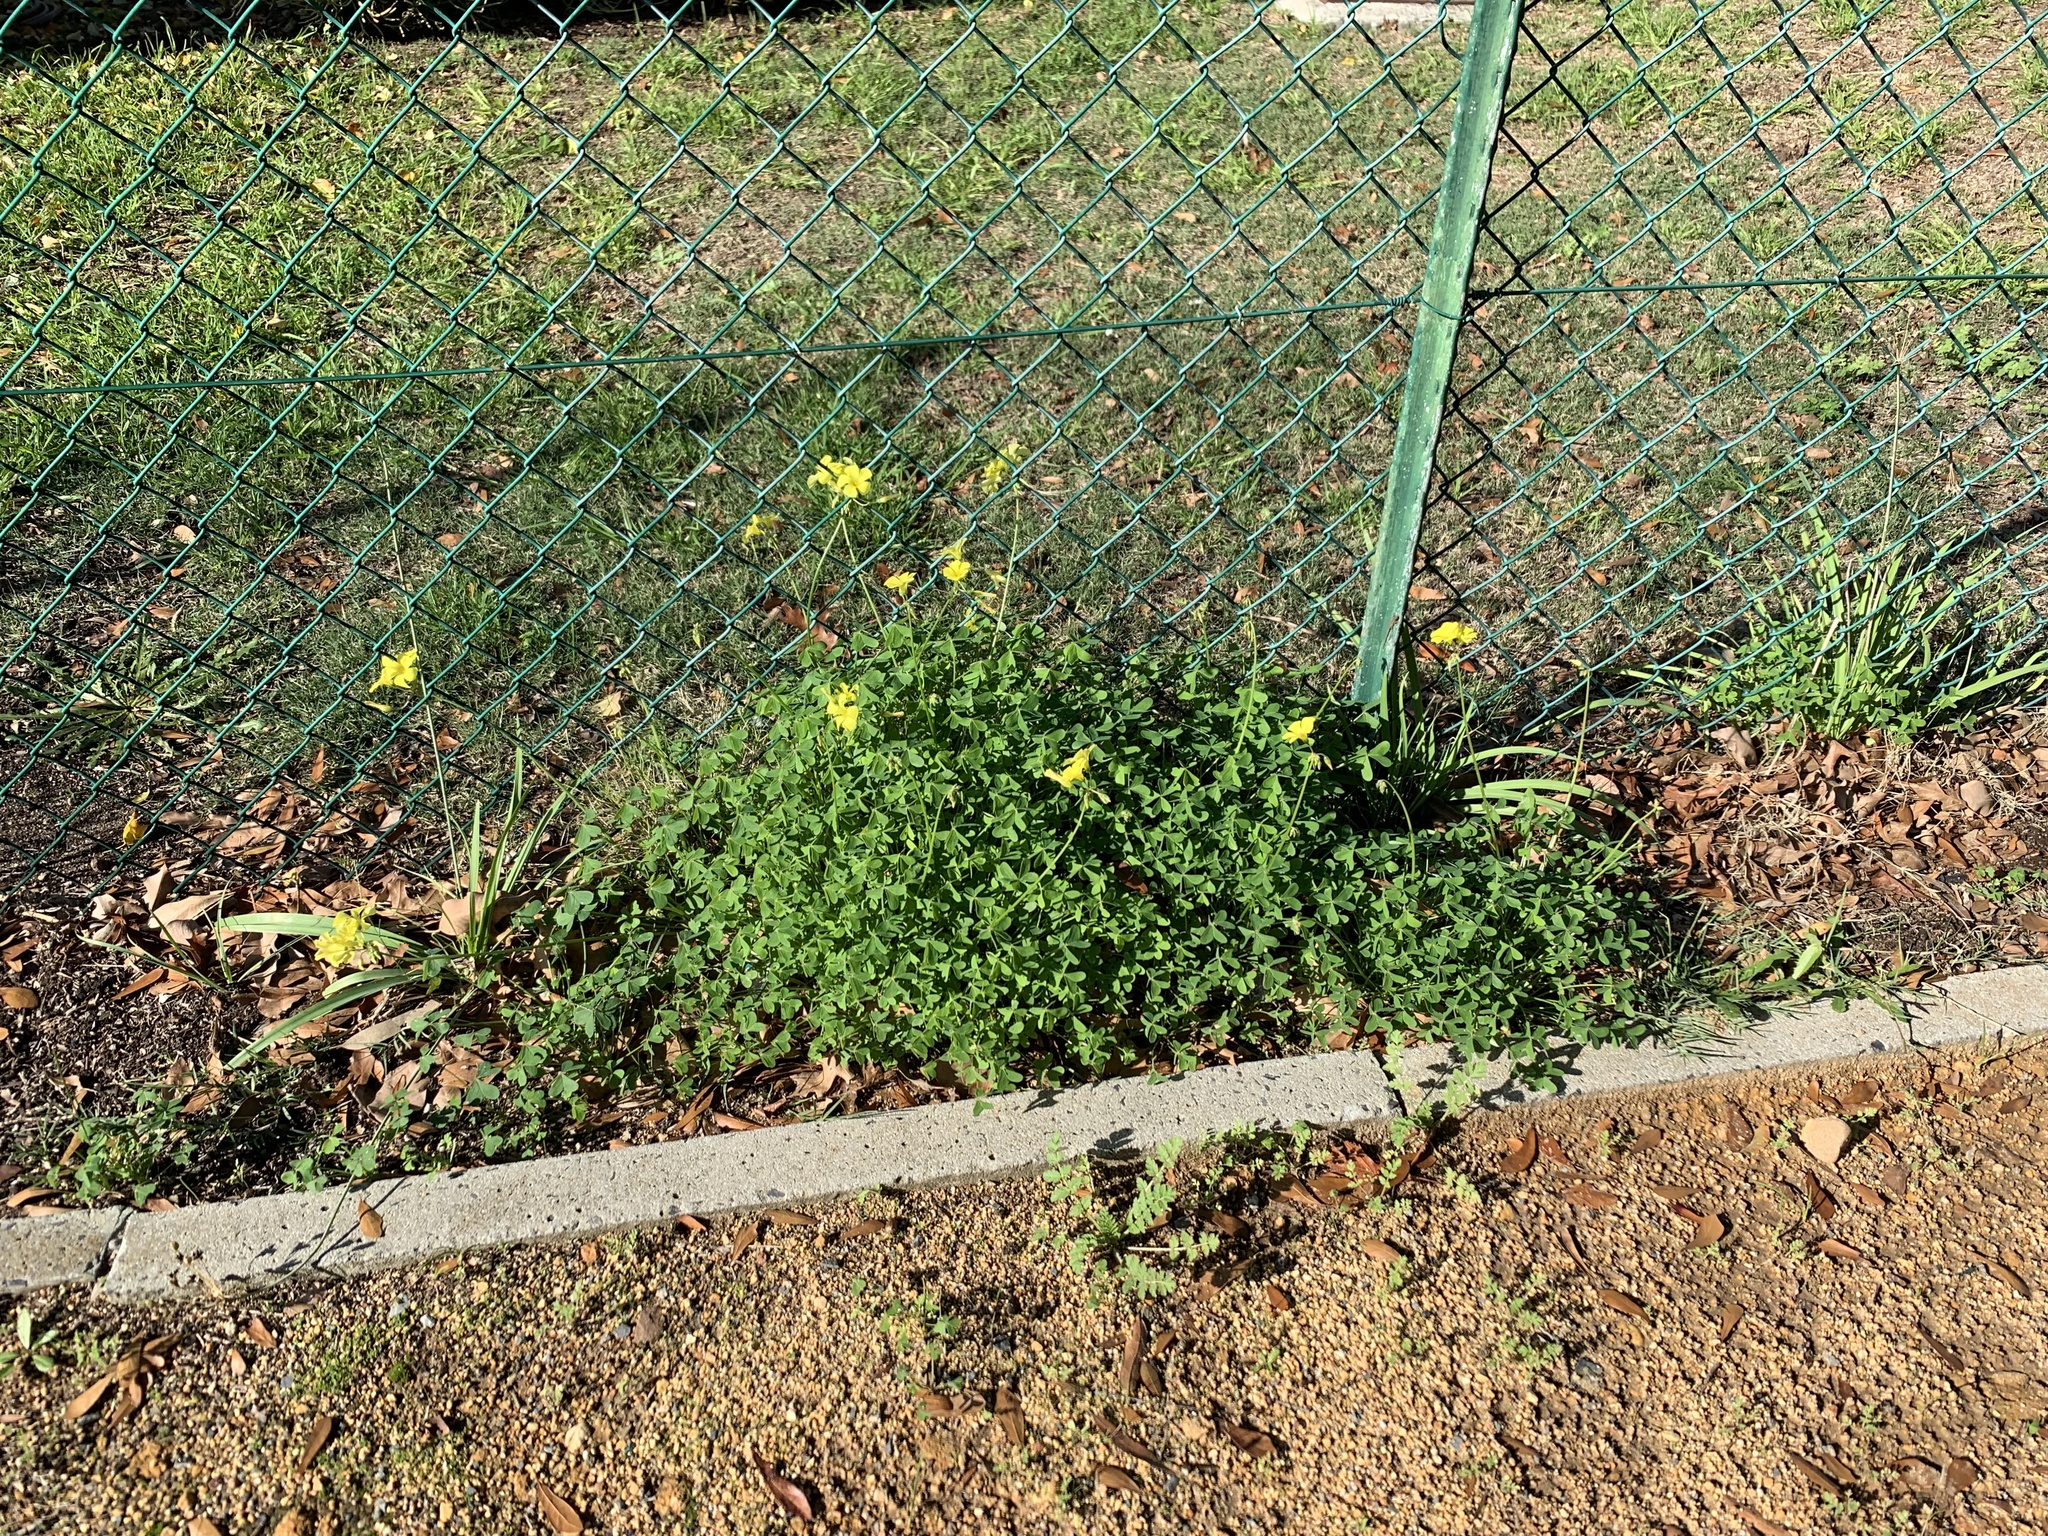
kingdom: Plantae
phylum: Tracheophyta
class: Magnoliopsida
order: Oxalidales
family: Oxalidaceae
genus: Oxalis
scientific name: Oxalis pes-caprae
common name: Bermuda-buttercup
